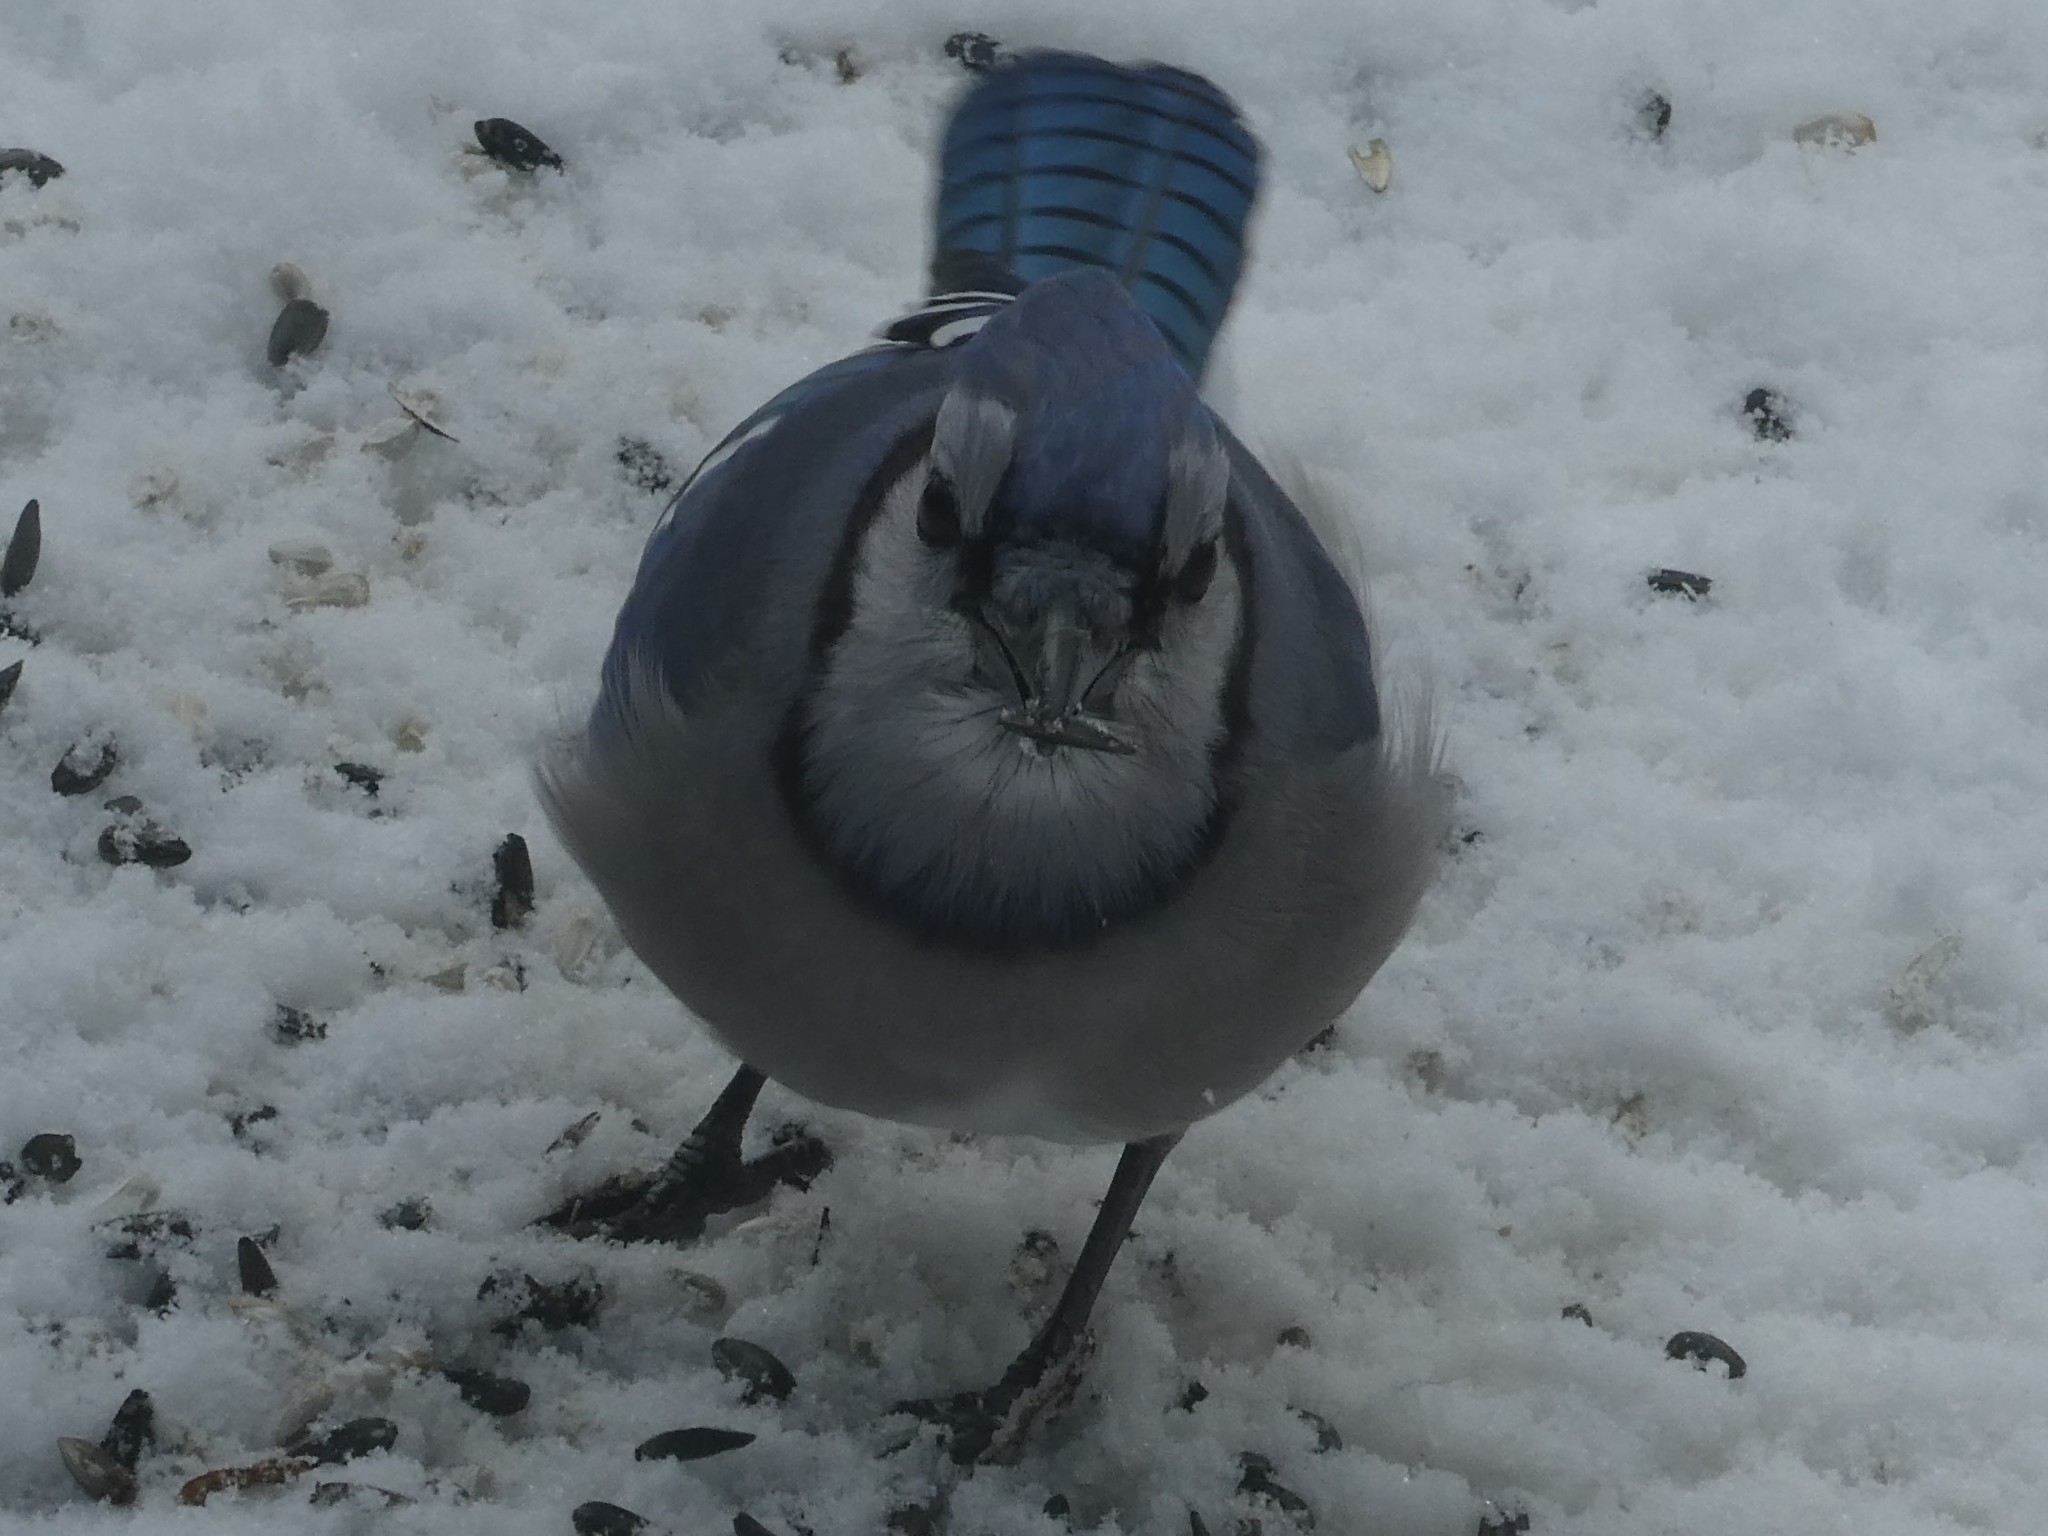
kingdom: Animalia
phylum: Chordata
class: Aves
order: Passeriformes
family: Corvidae
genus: Cyanocitta
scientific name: Cyanocitta cristata
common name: Blue jay
